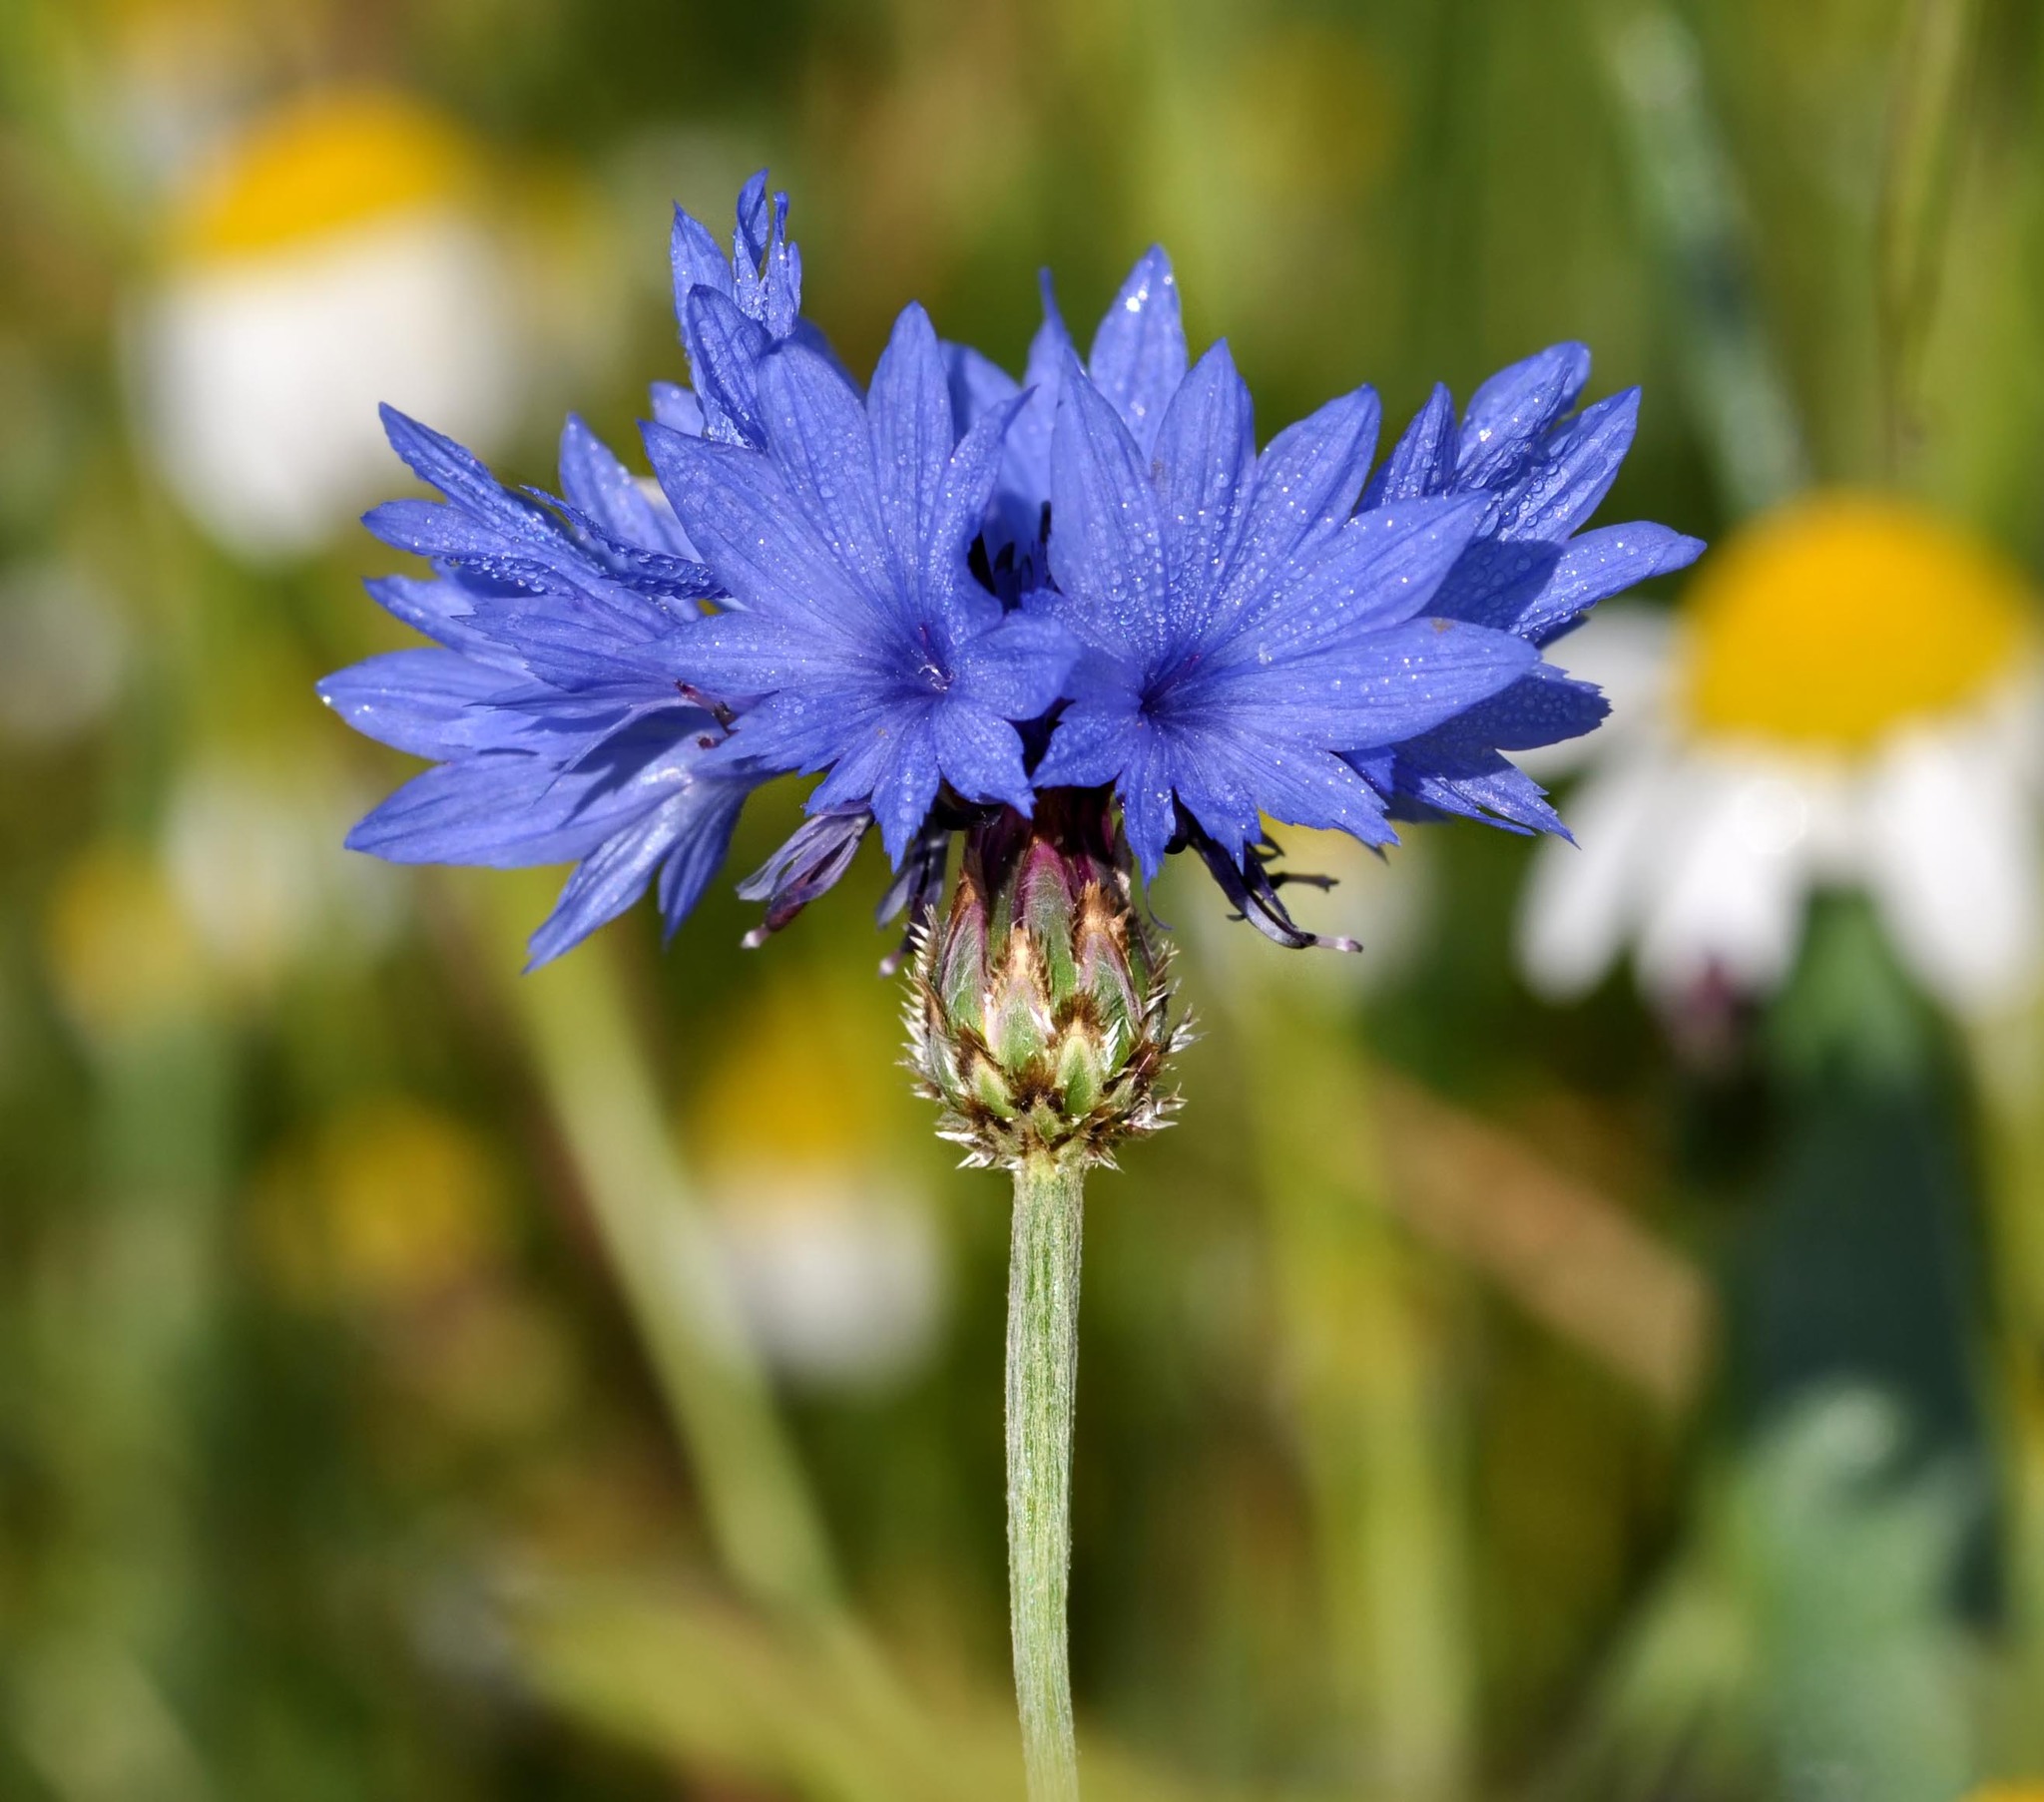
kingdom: Plantae
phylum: Tracheophyta
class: Magnoliopsida
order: Asterales
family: Asteraceae
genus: Centaurea
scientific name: Centaurea cyanus
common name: Cornflower
